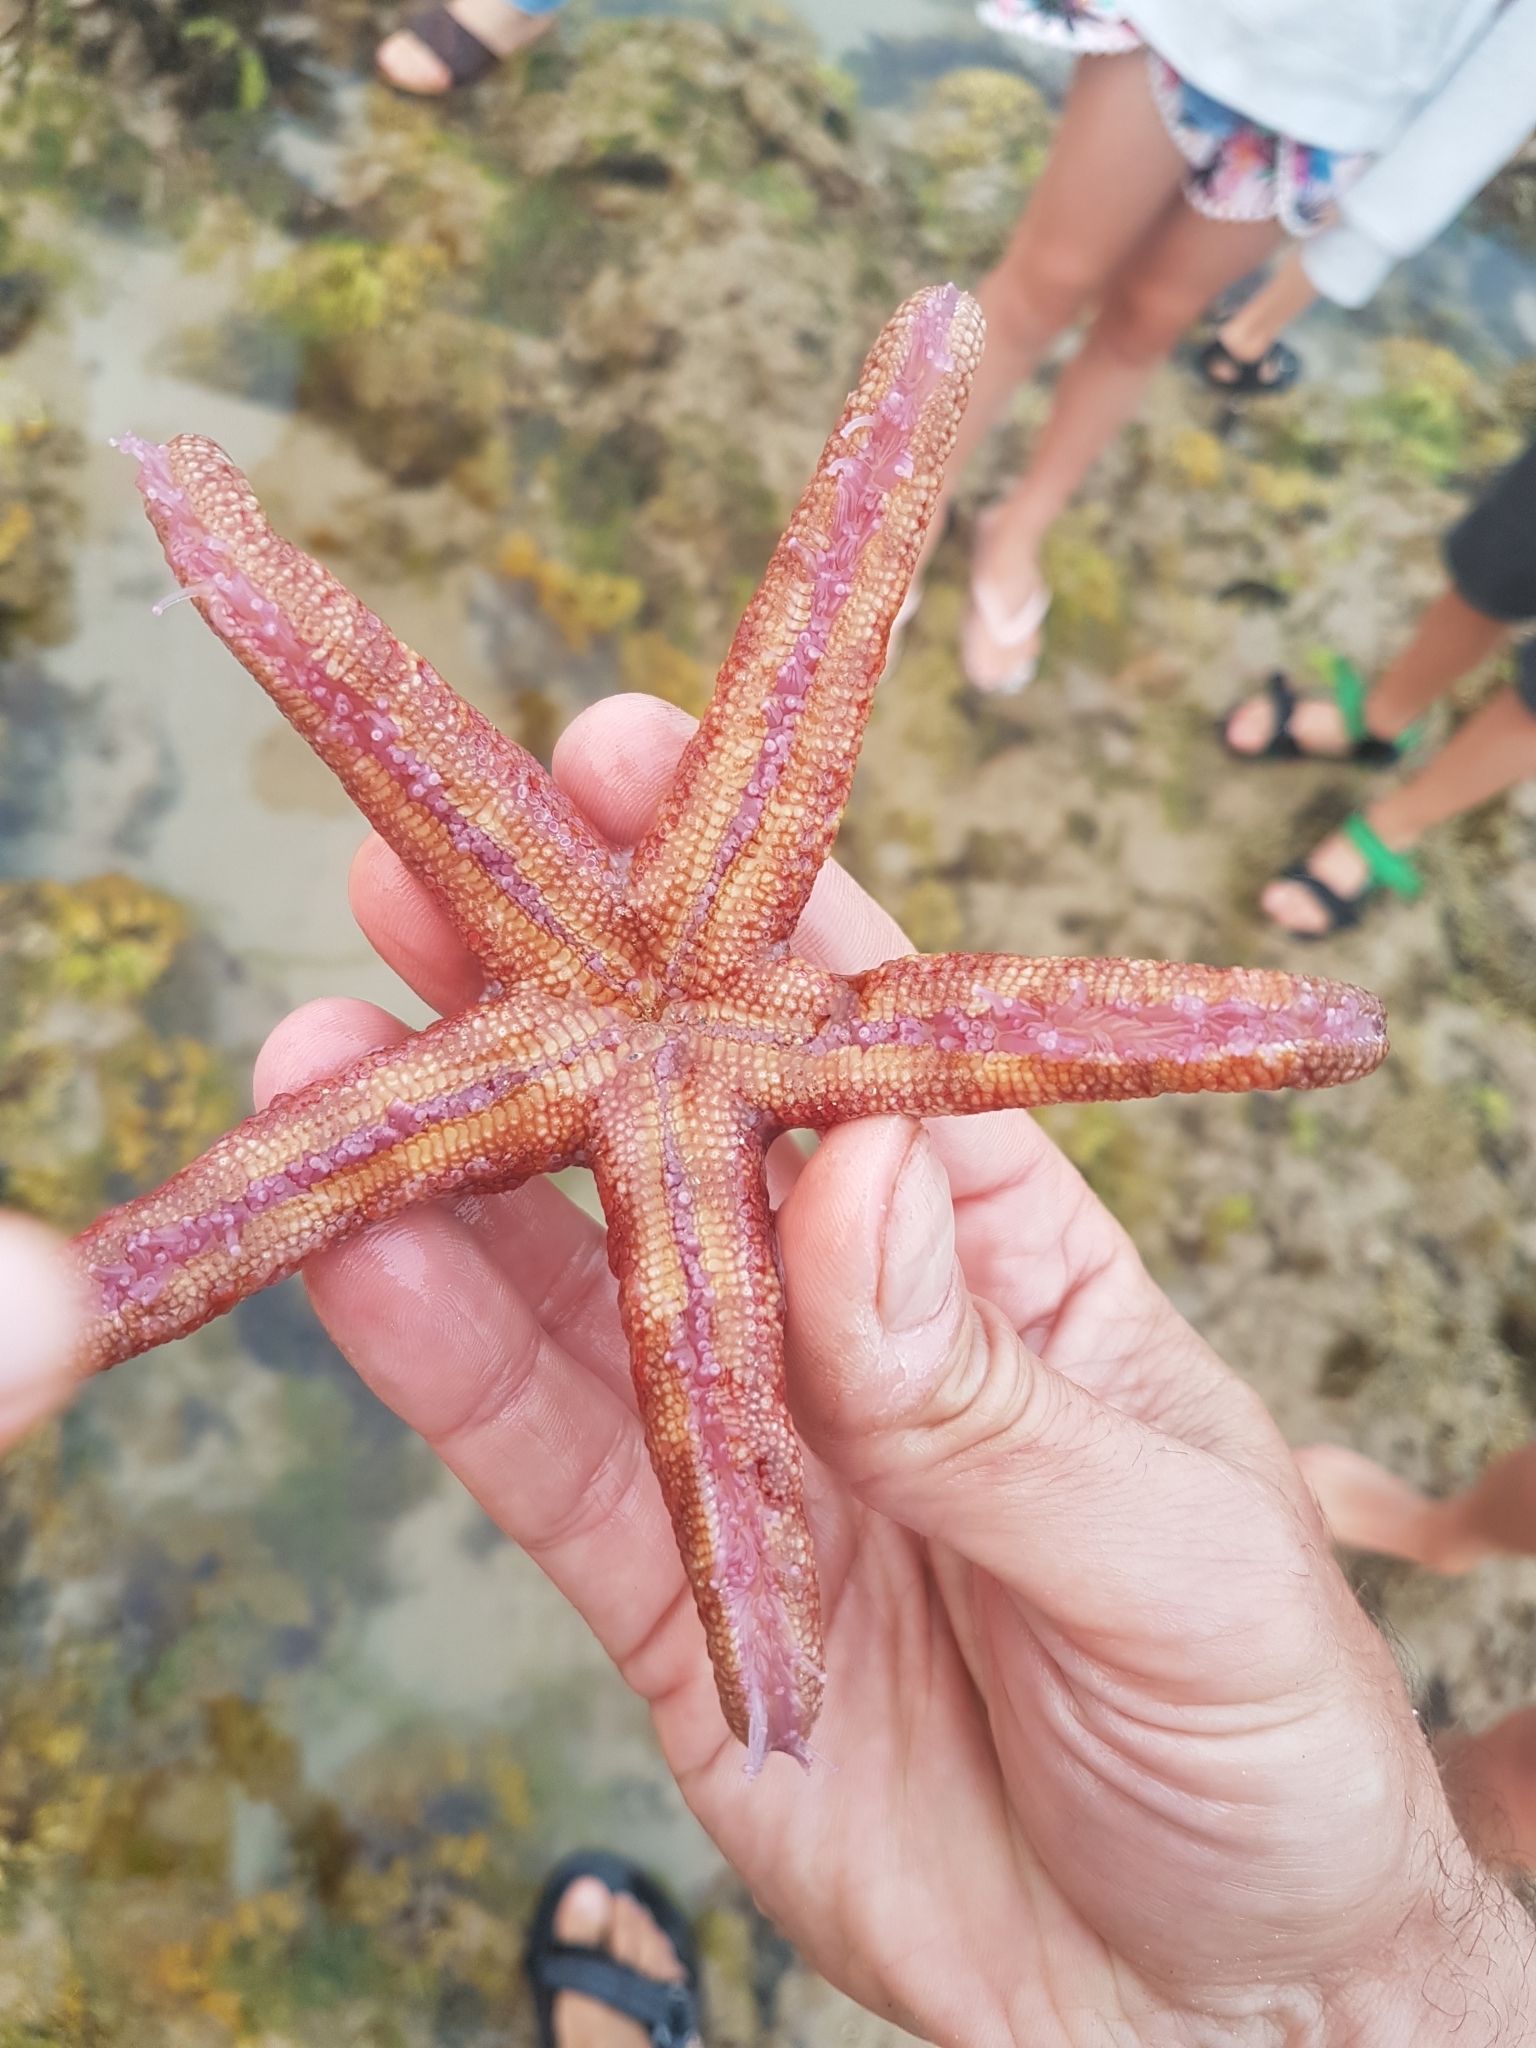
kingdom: Animalia
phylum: Echinodermata
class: Asteroidea
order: Spinulosida
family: Echinasteridae
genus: Plectaster
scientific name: Plectaster decanus
